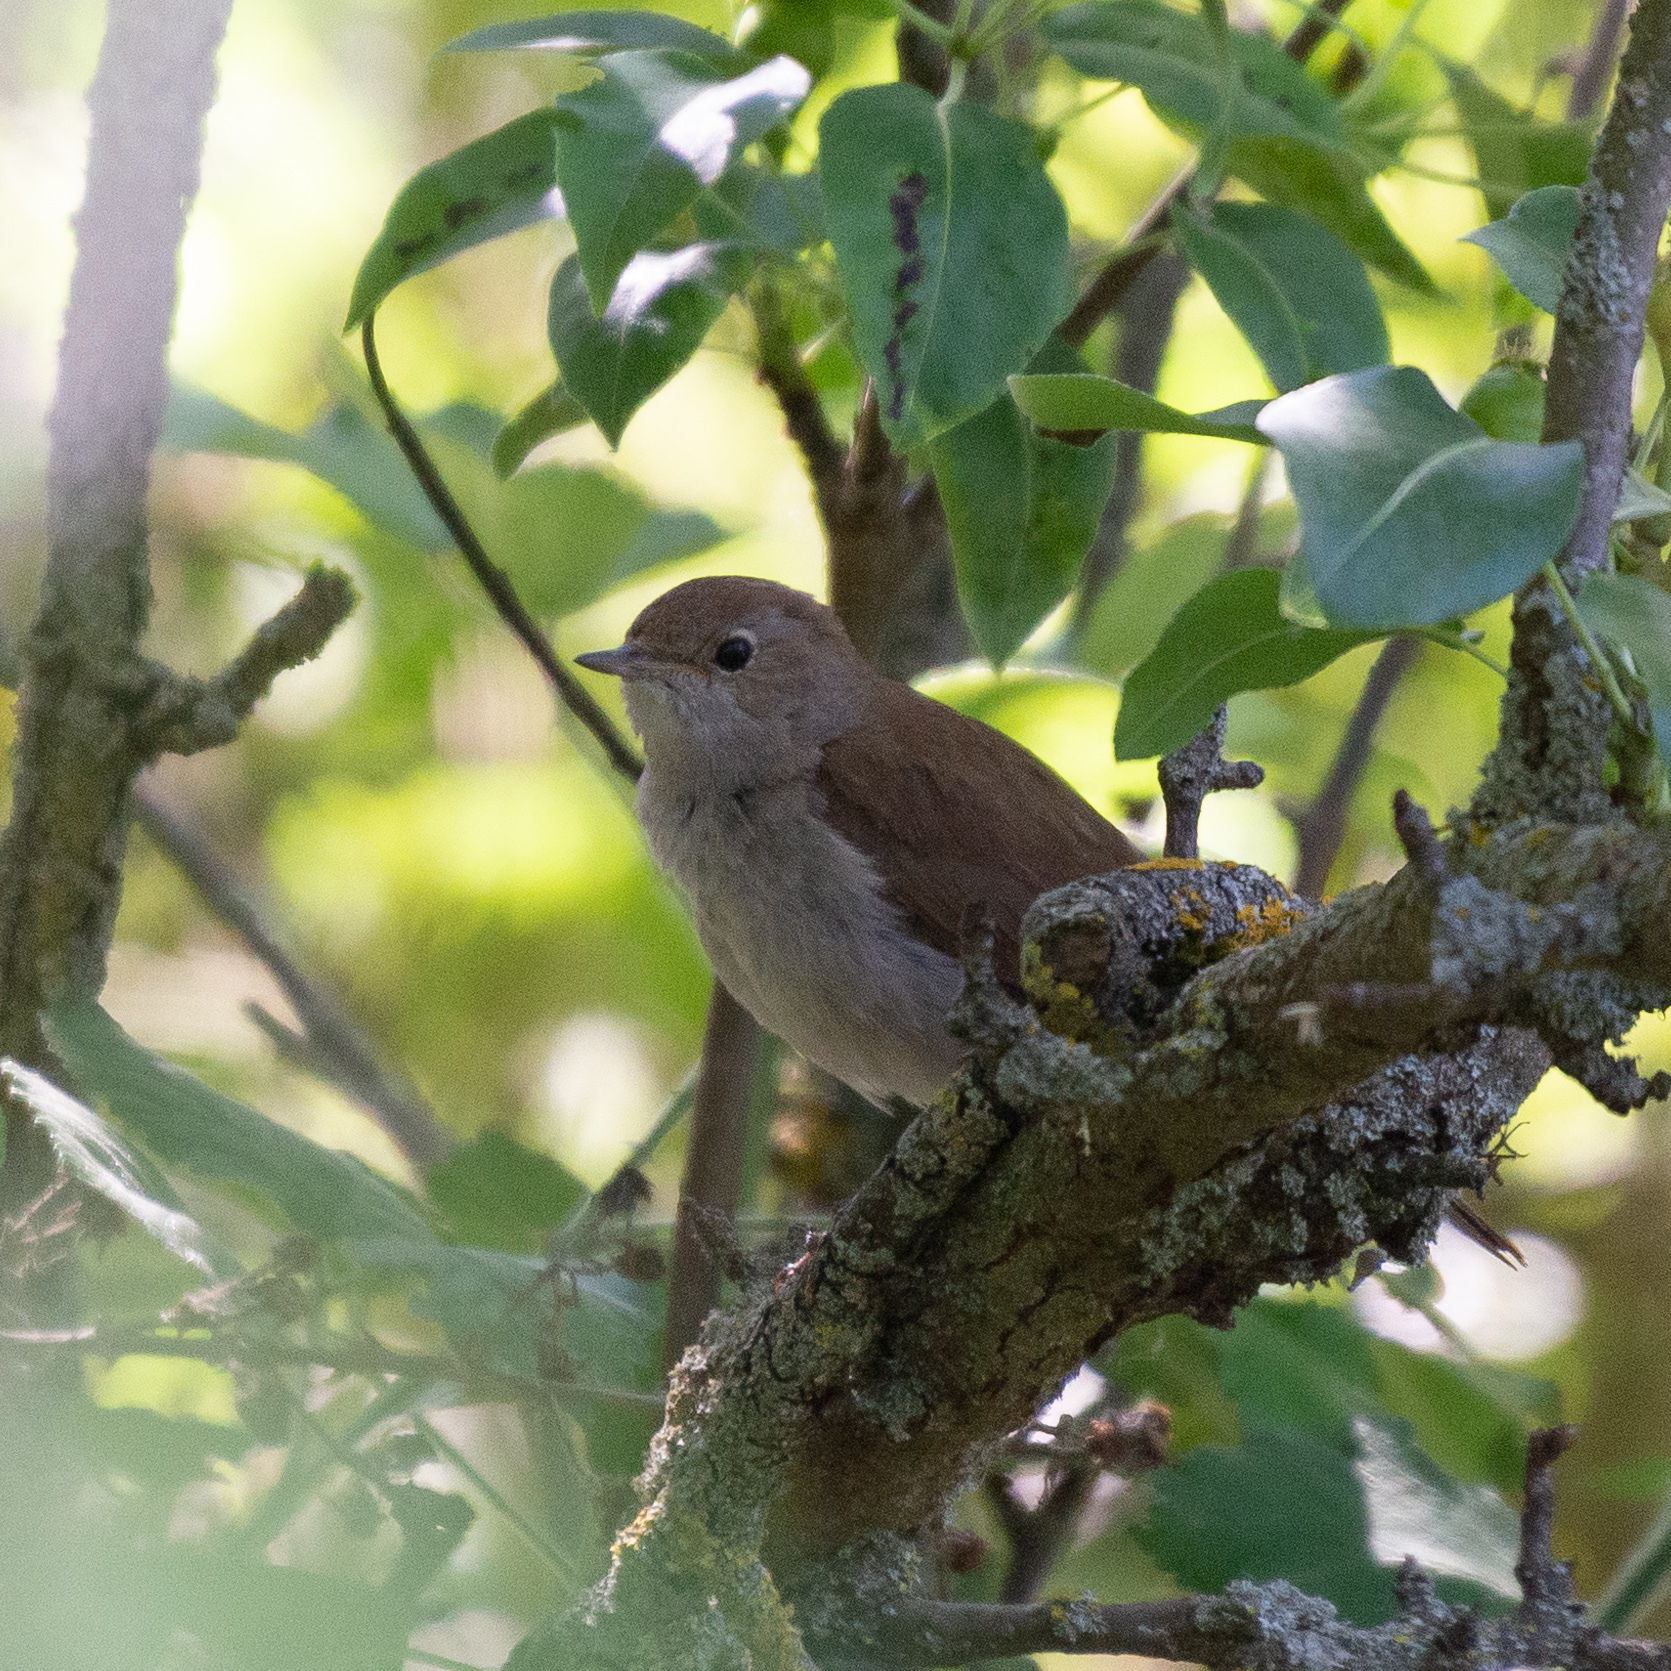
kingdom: Animalia
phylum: Chordata
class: Aves
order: Passeriformes
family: Muscicapidae
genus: Luscinia
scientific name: Luscinia megarhynchos
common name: Common nightingale
